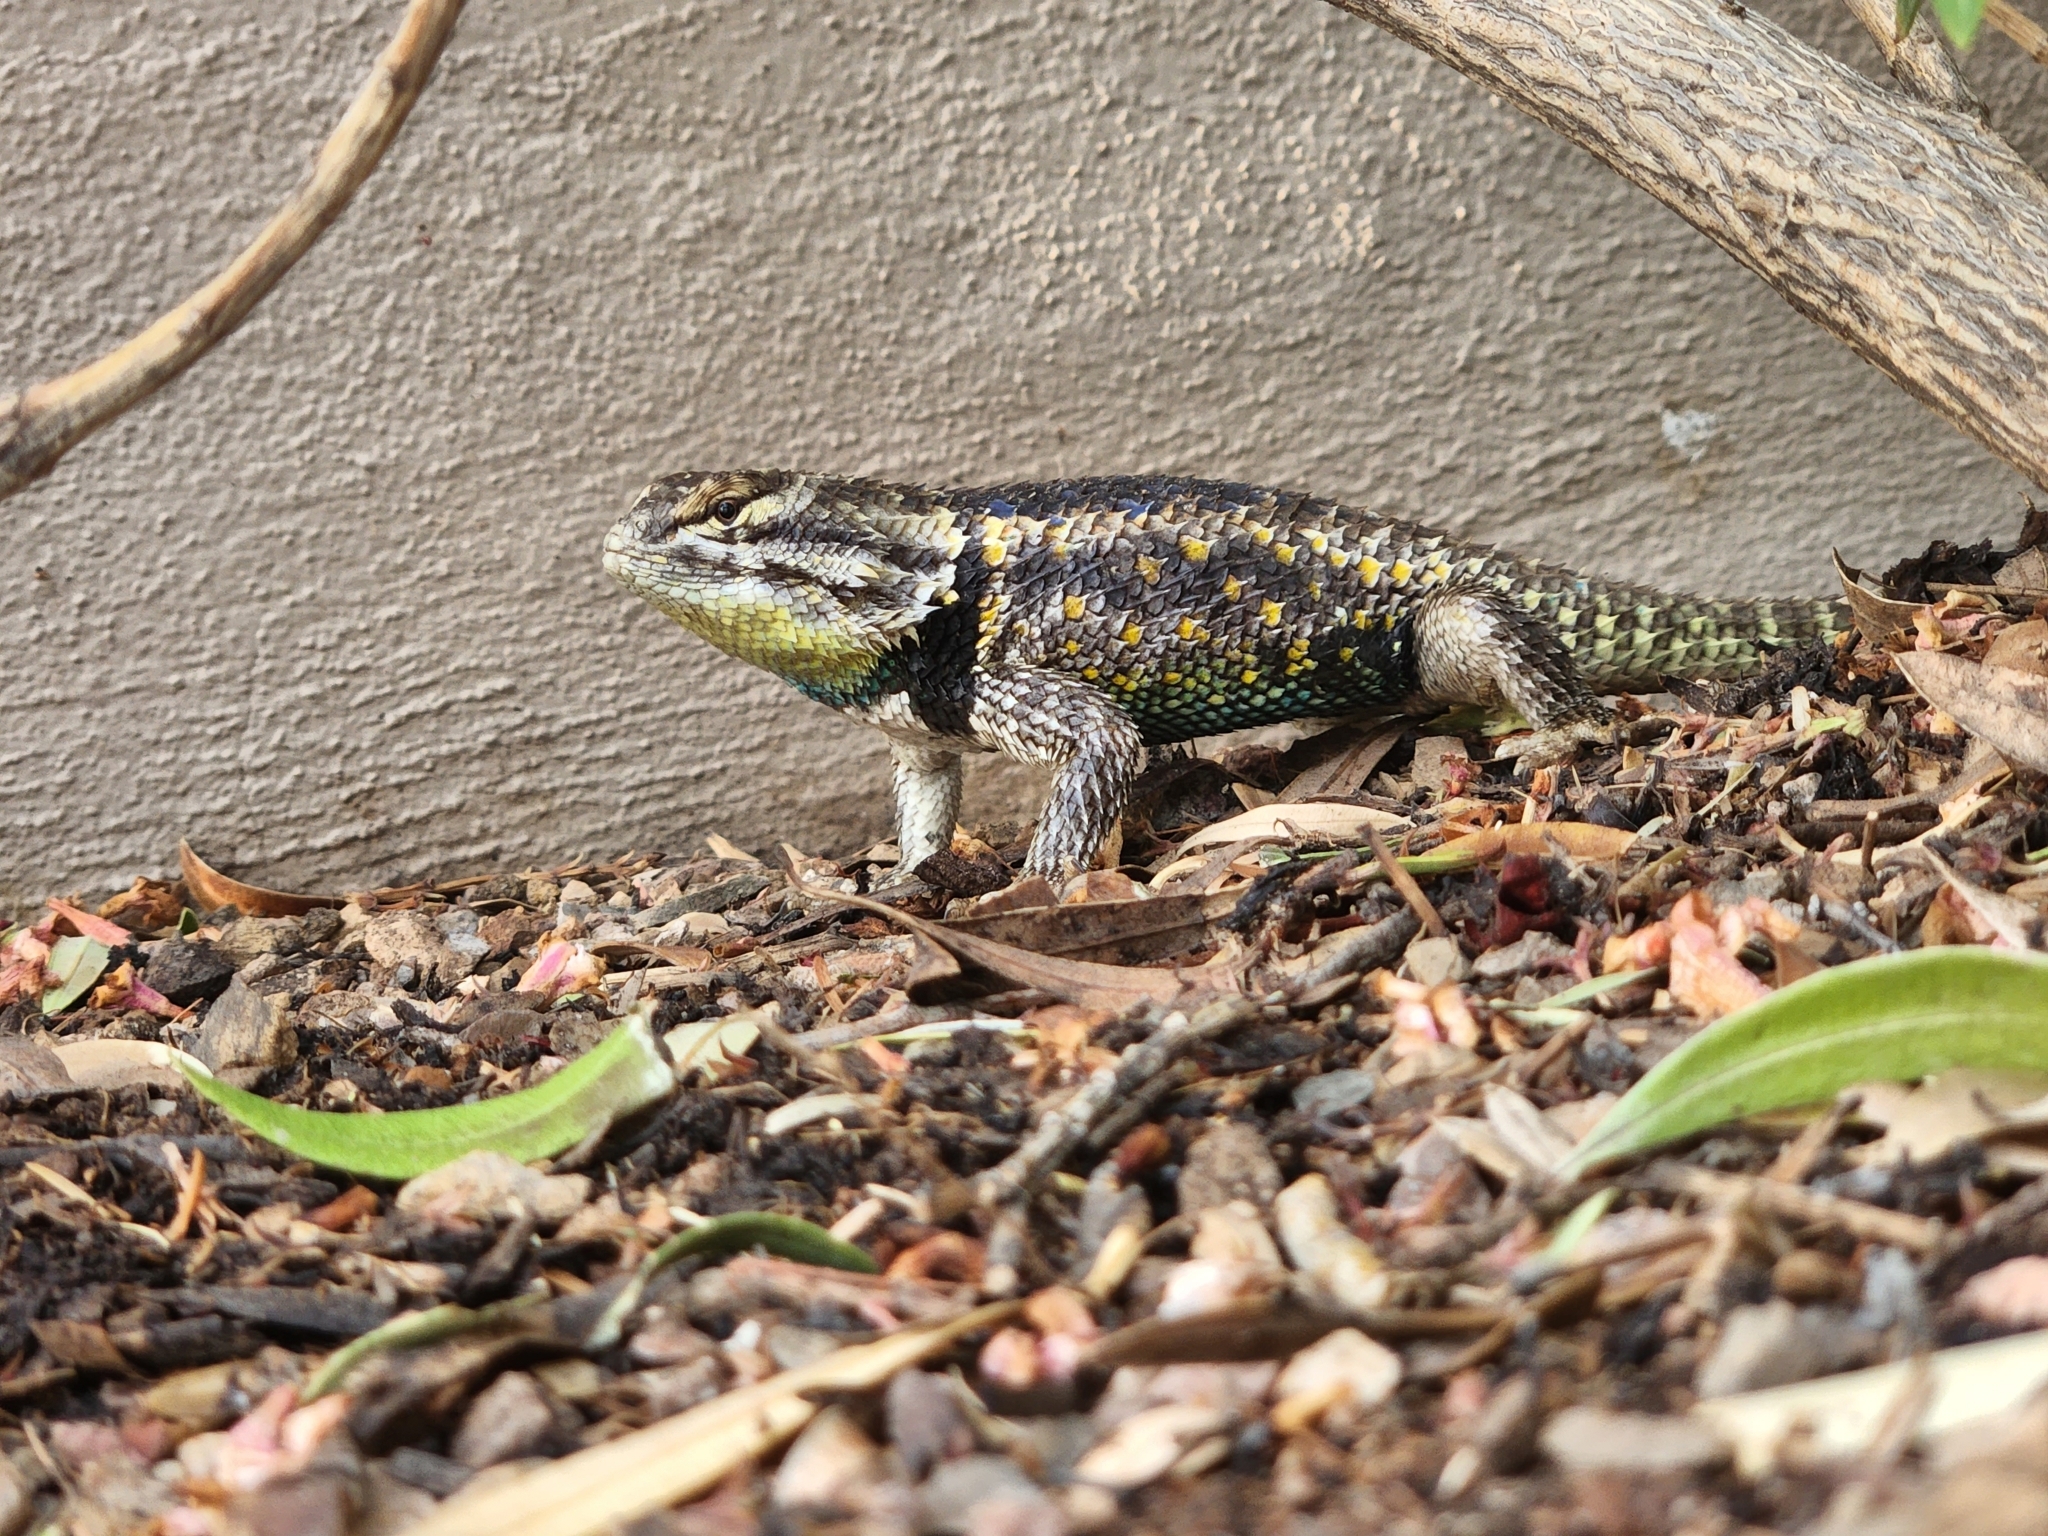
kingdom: Animalia
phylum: Chordata
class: Squamata
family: Phrynosomatidae
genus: Sceloporus
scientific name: Sceloporus magister
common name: Desert spiny lizard
